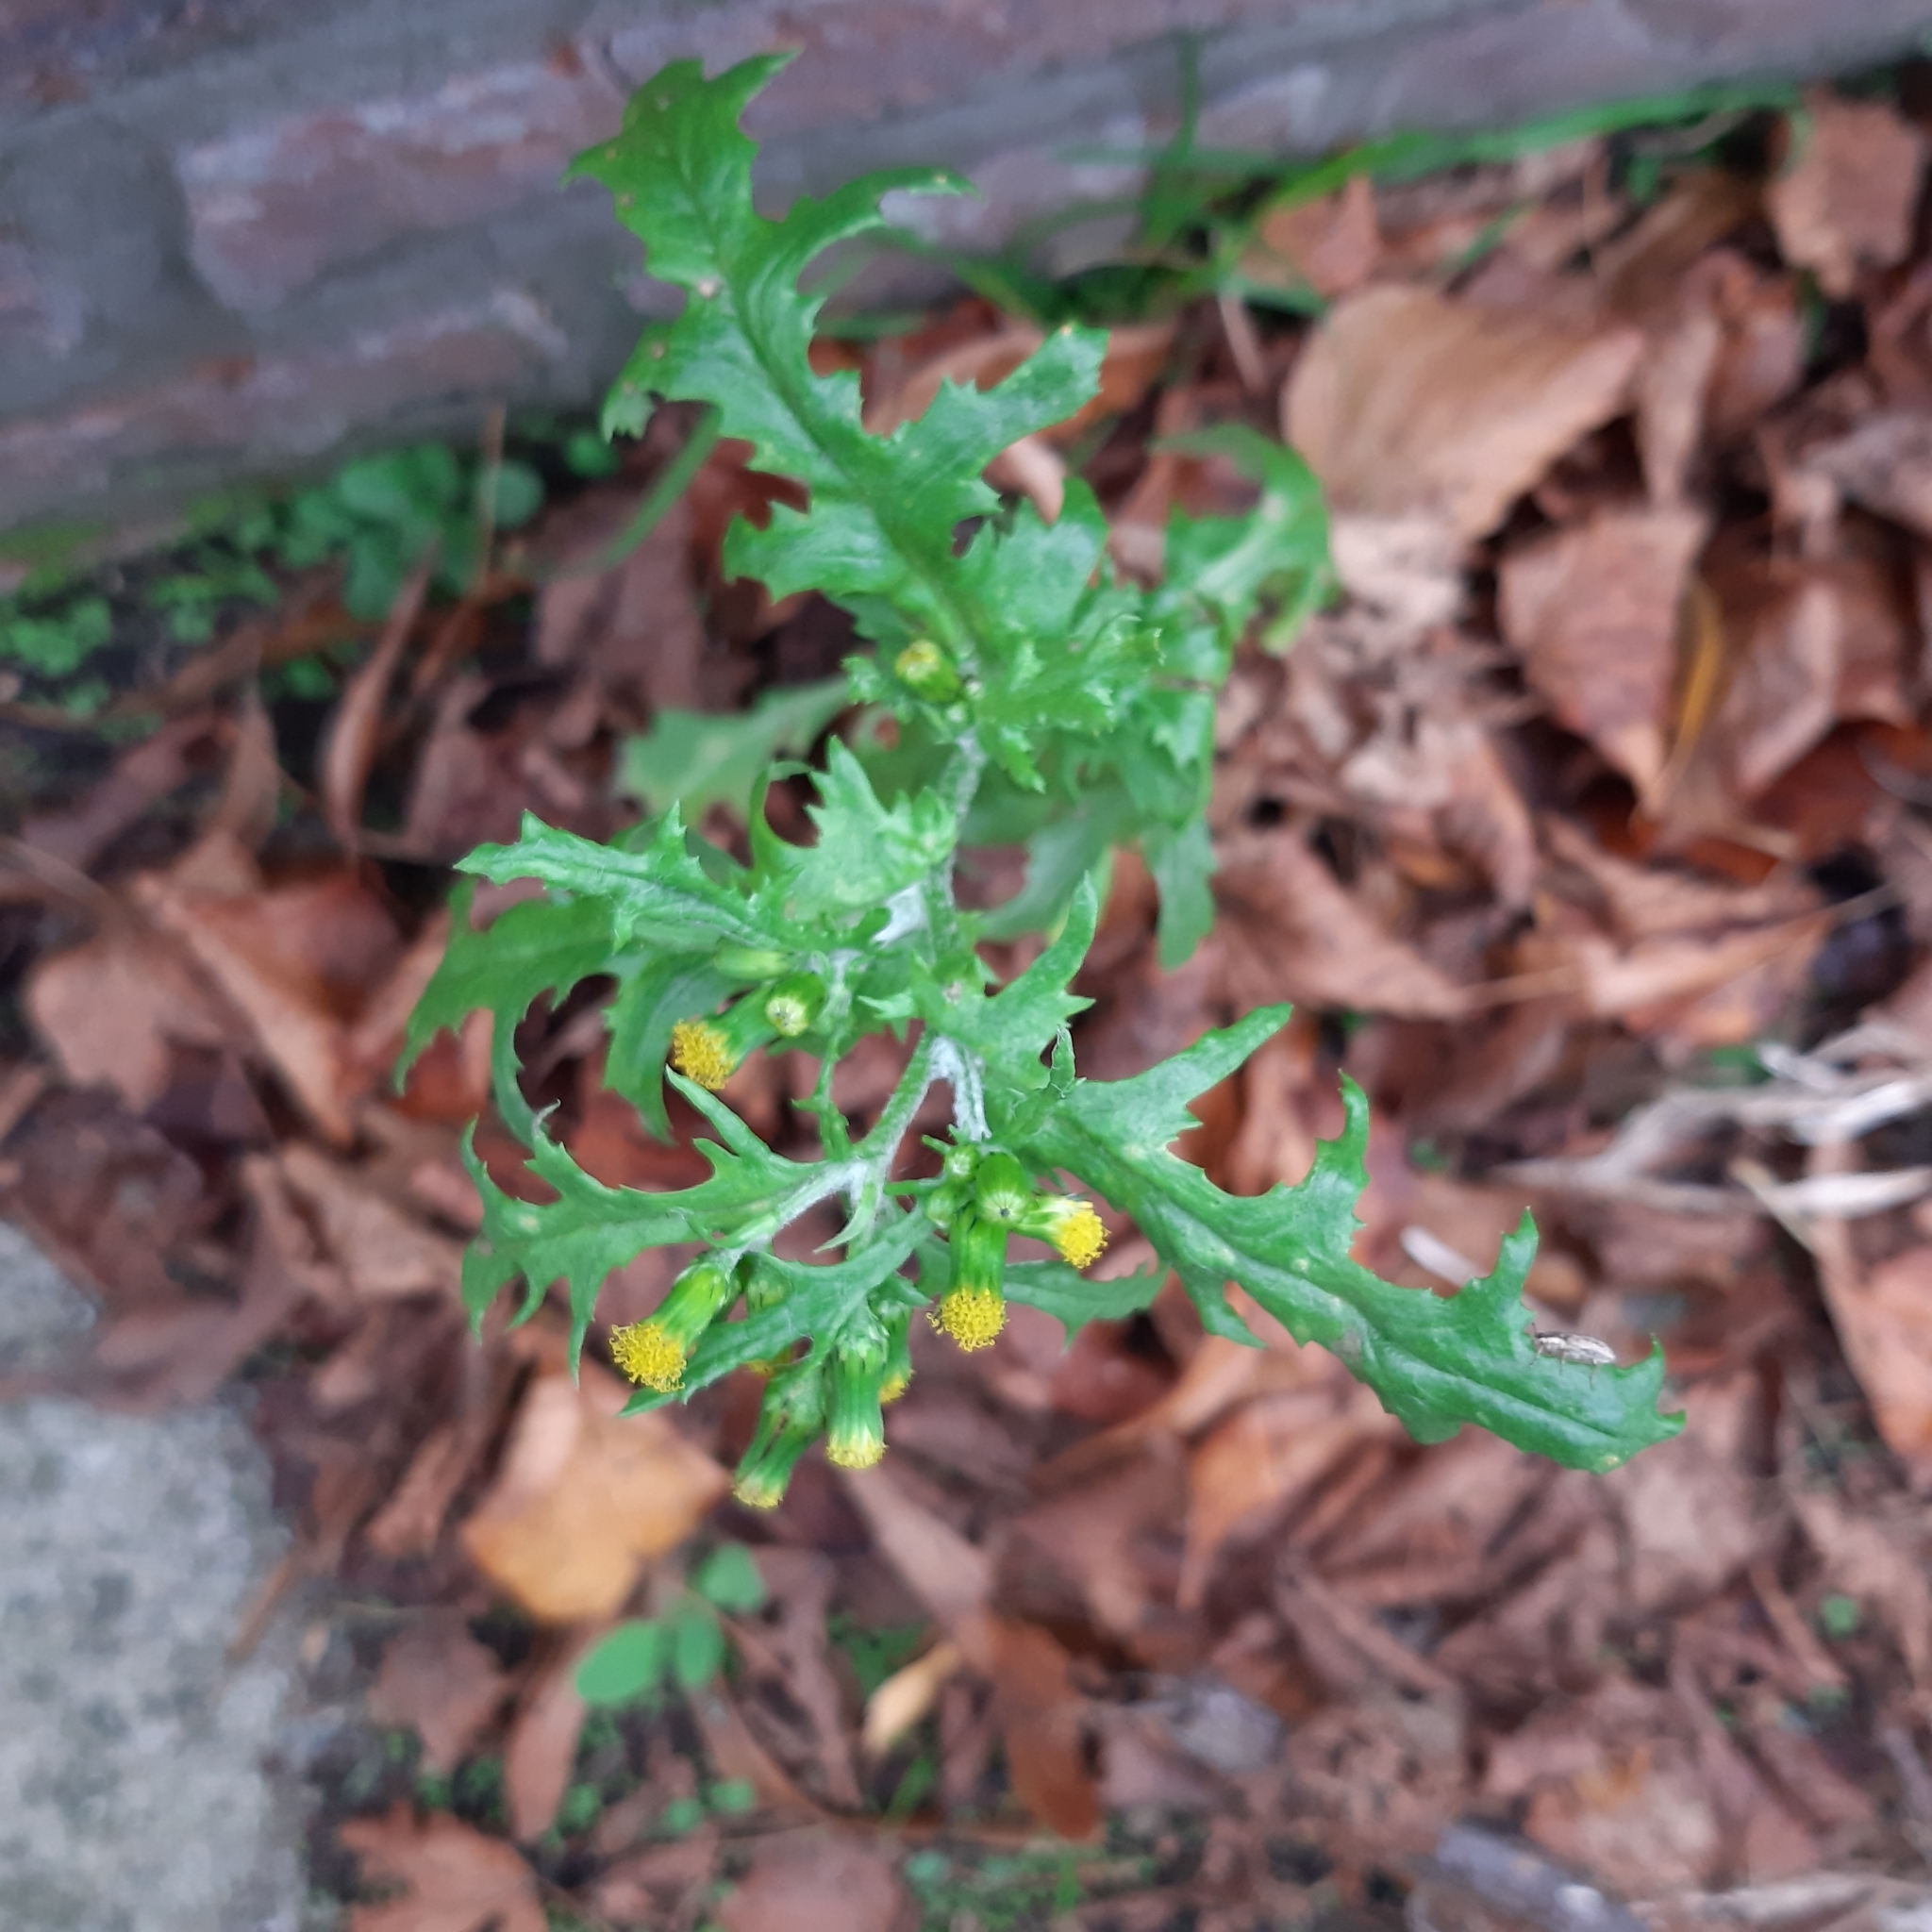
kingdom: Plantae
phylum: Tracheophyta
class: Magnoliopsida
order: Asterales
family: Asteraceae
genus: Senecio
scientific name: Senecio vulgaris
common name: Old-man-in-the-spring
